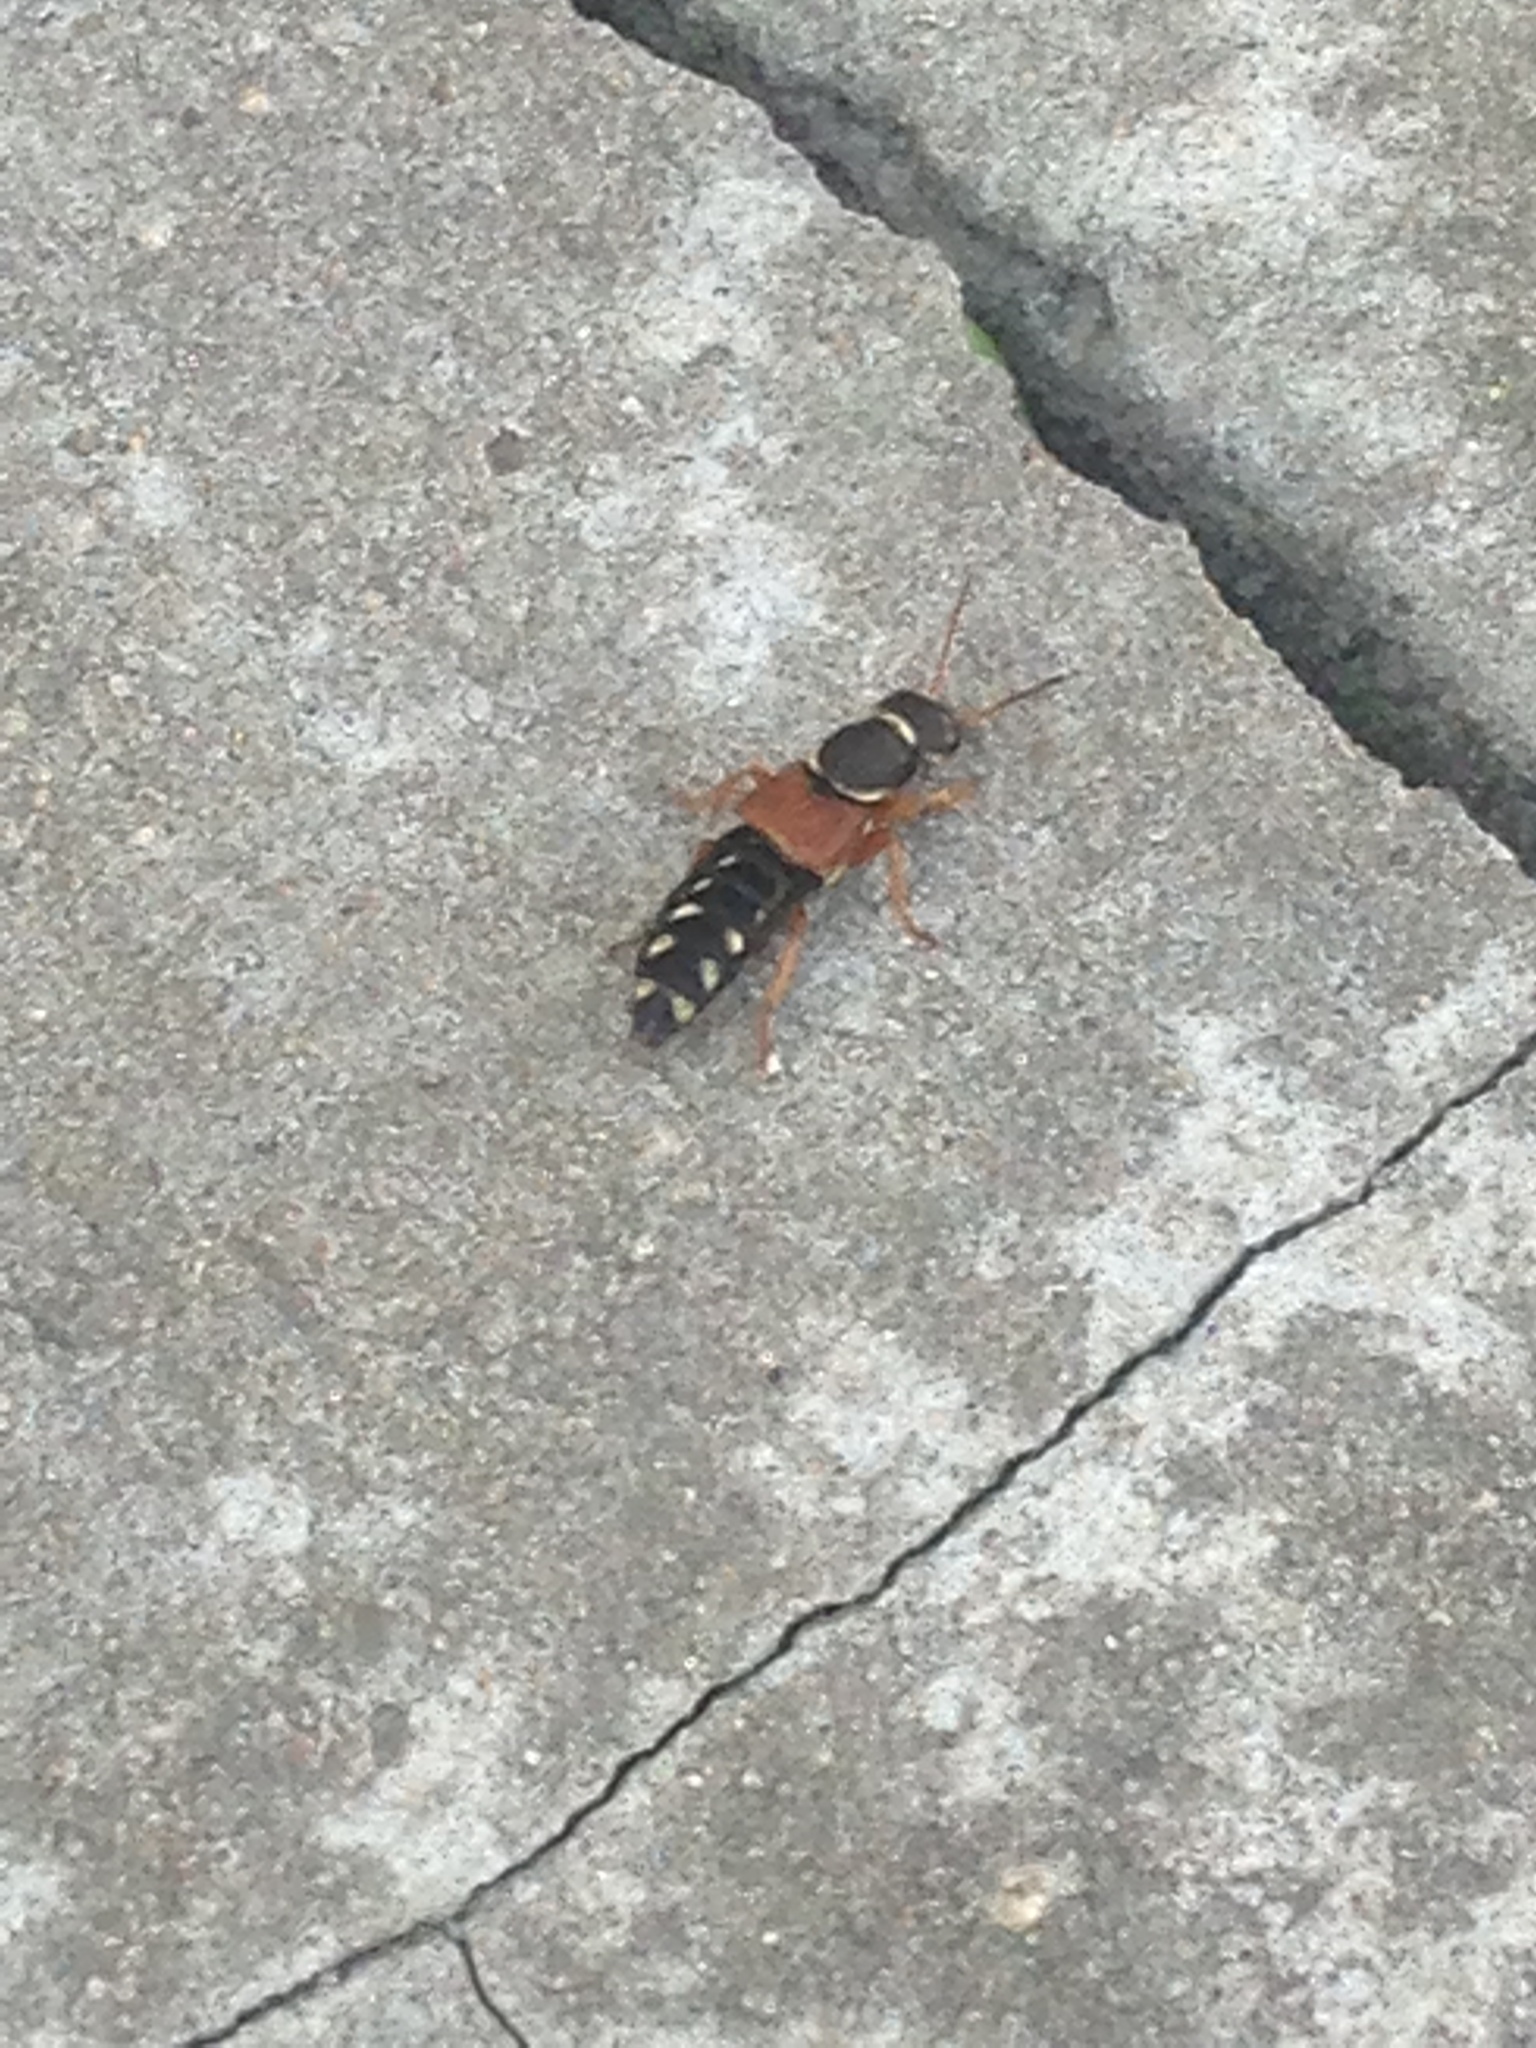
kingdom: Animalia
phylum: Arthropoda
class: Insecta
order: Coleoptera
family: Staphylinidae
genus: Staphylinus
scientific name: Staphylinus caesareus
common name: Staph beetle
